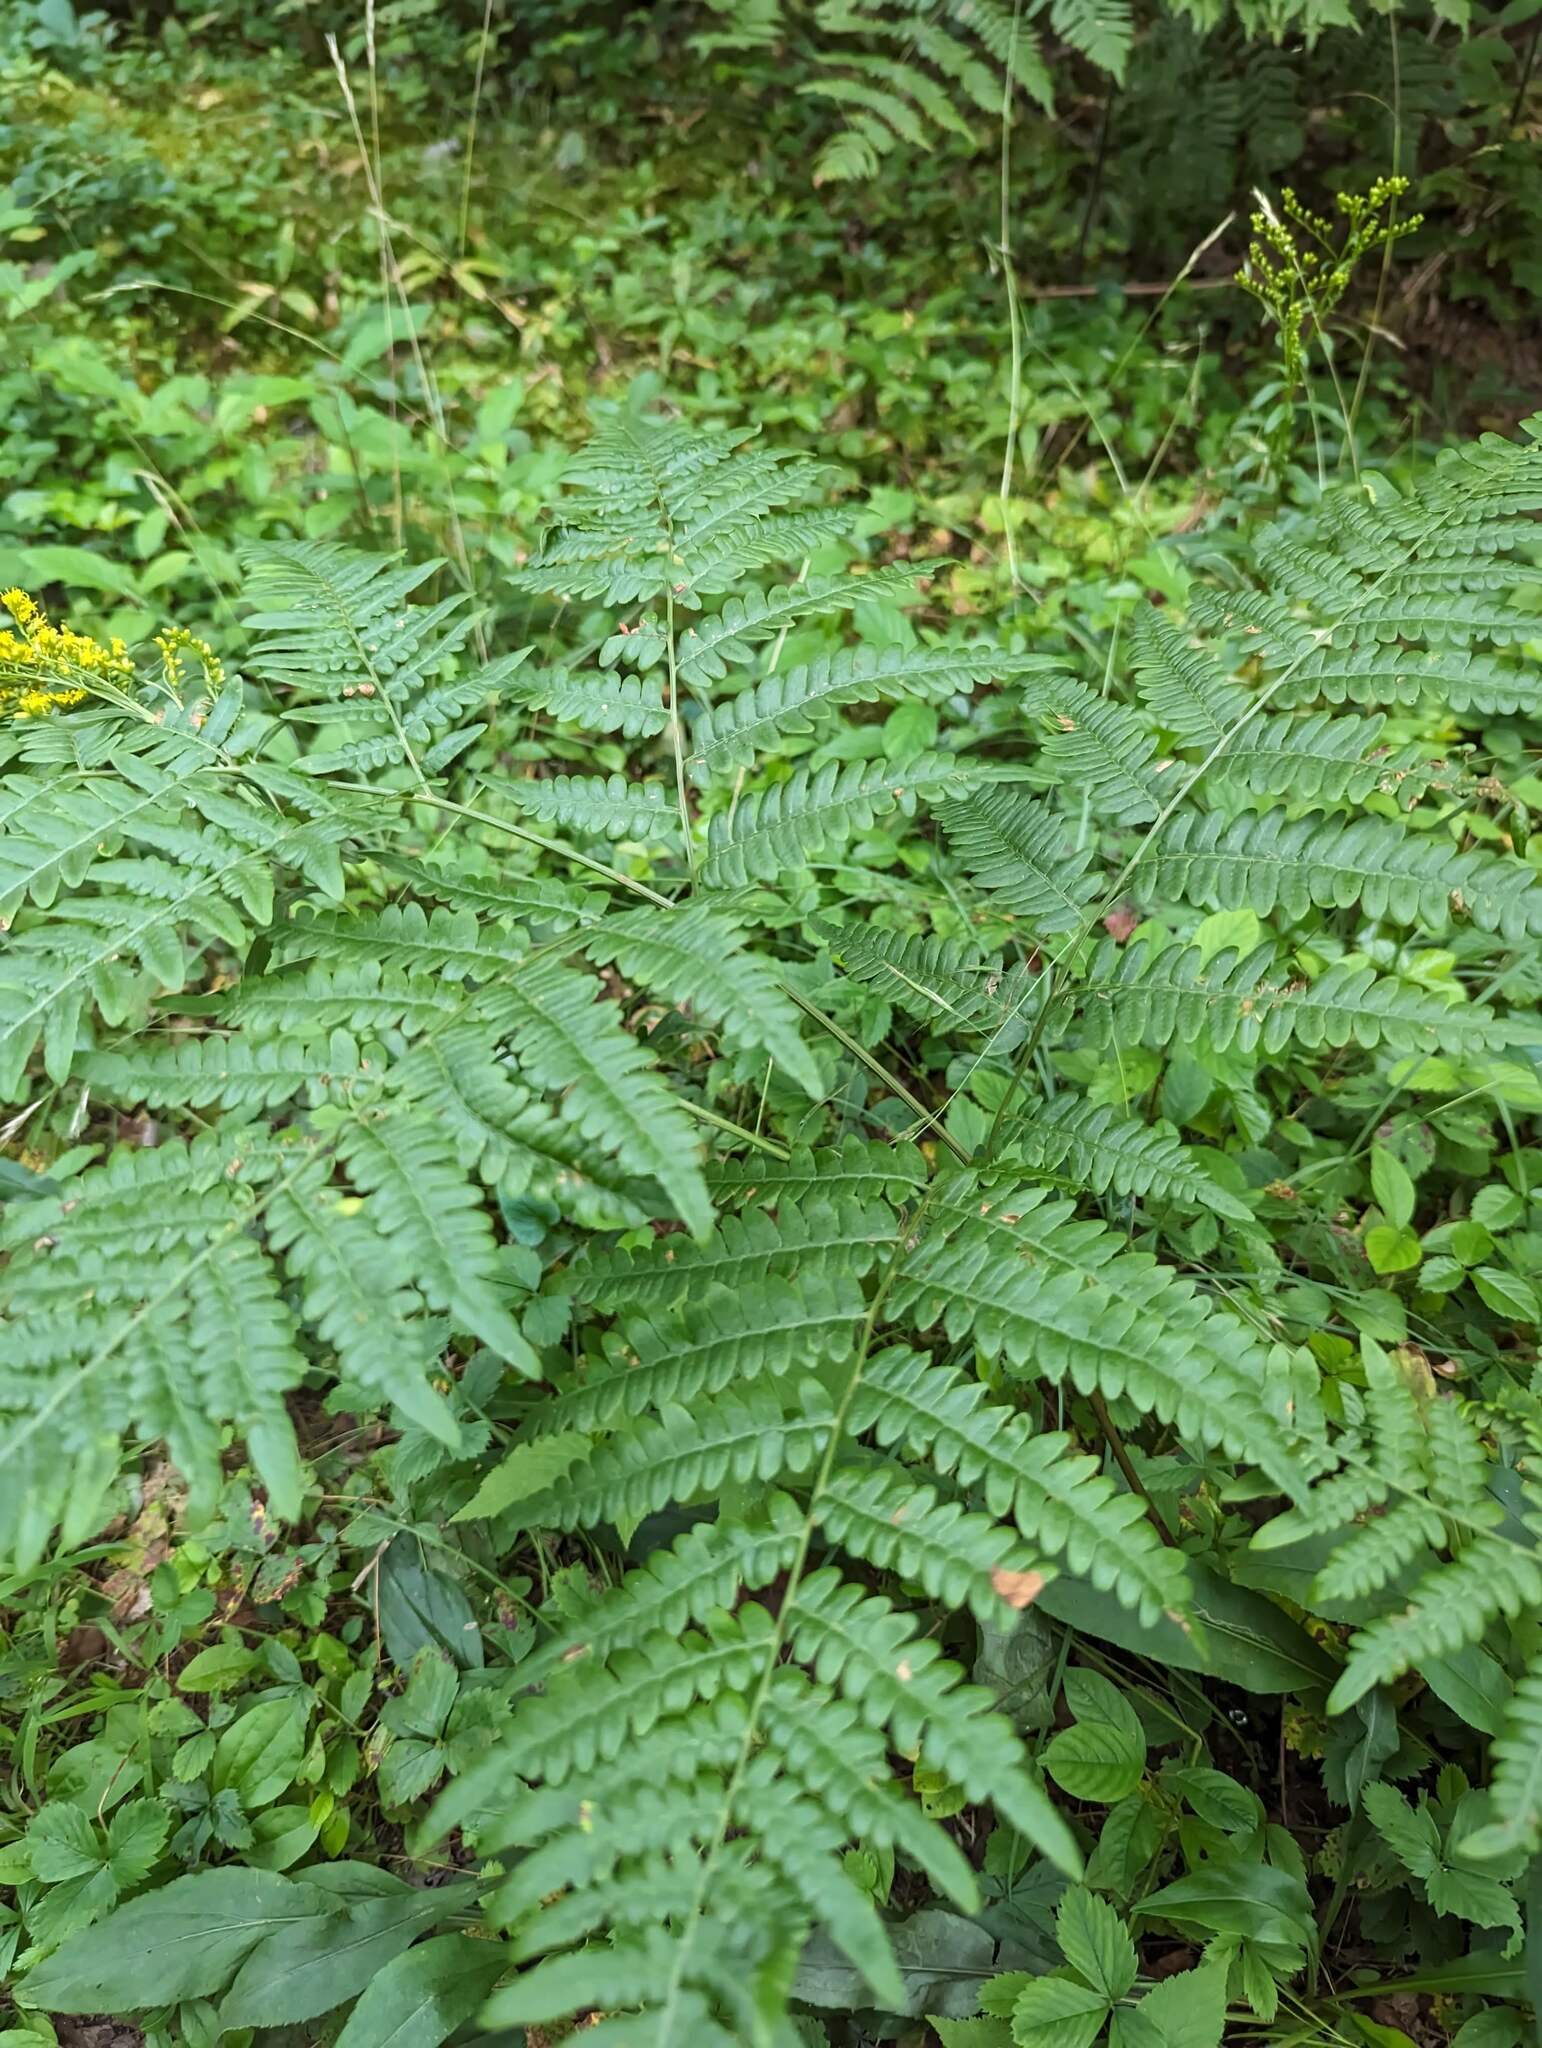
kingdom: Plantae
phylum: Tracheophyta
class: Polypodiopsida
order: Polypodiales
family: Dennstaedtiaceae
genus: Pteridium
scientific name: Pteridium aquilinum
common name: Bracken
